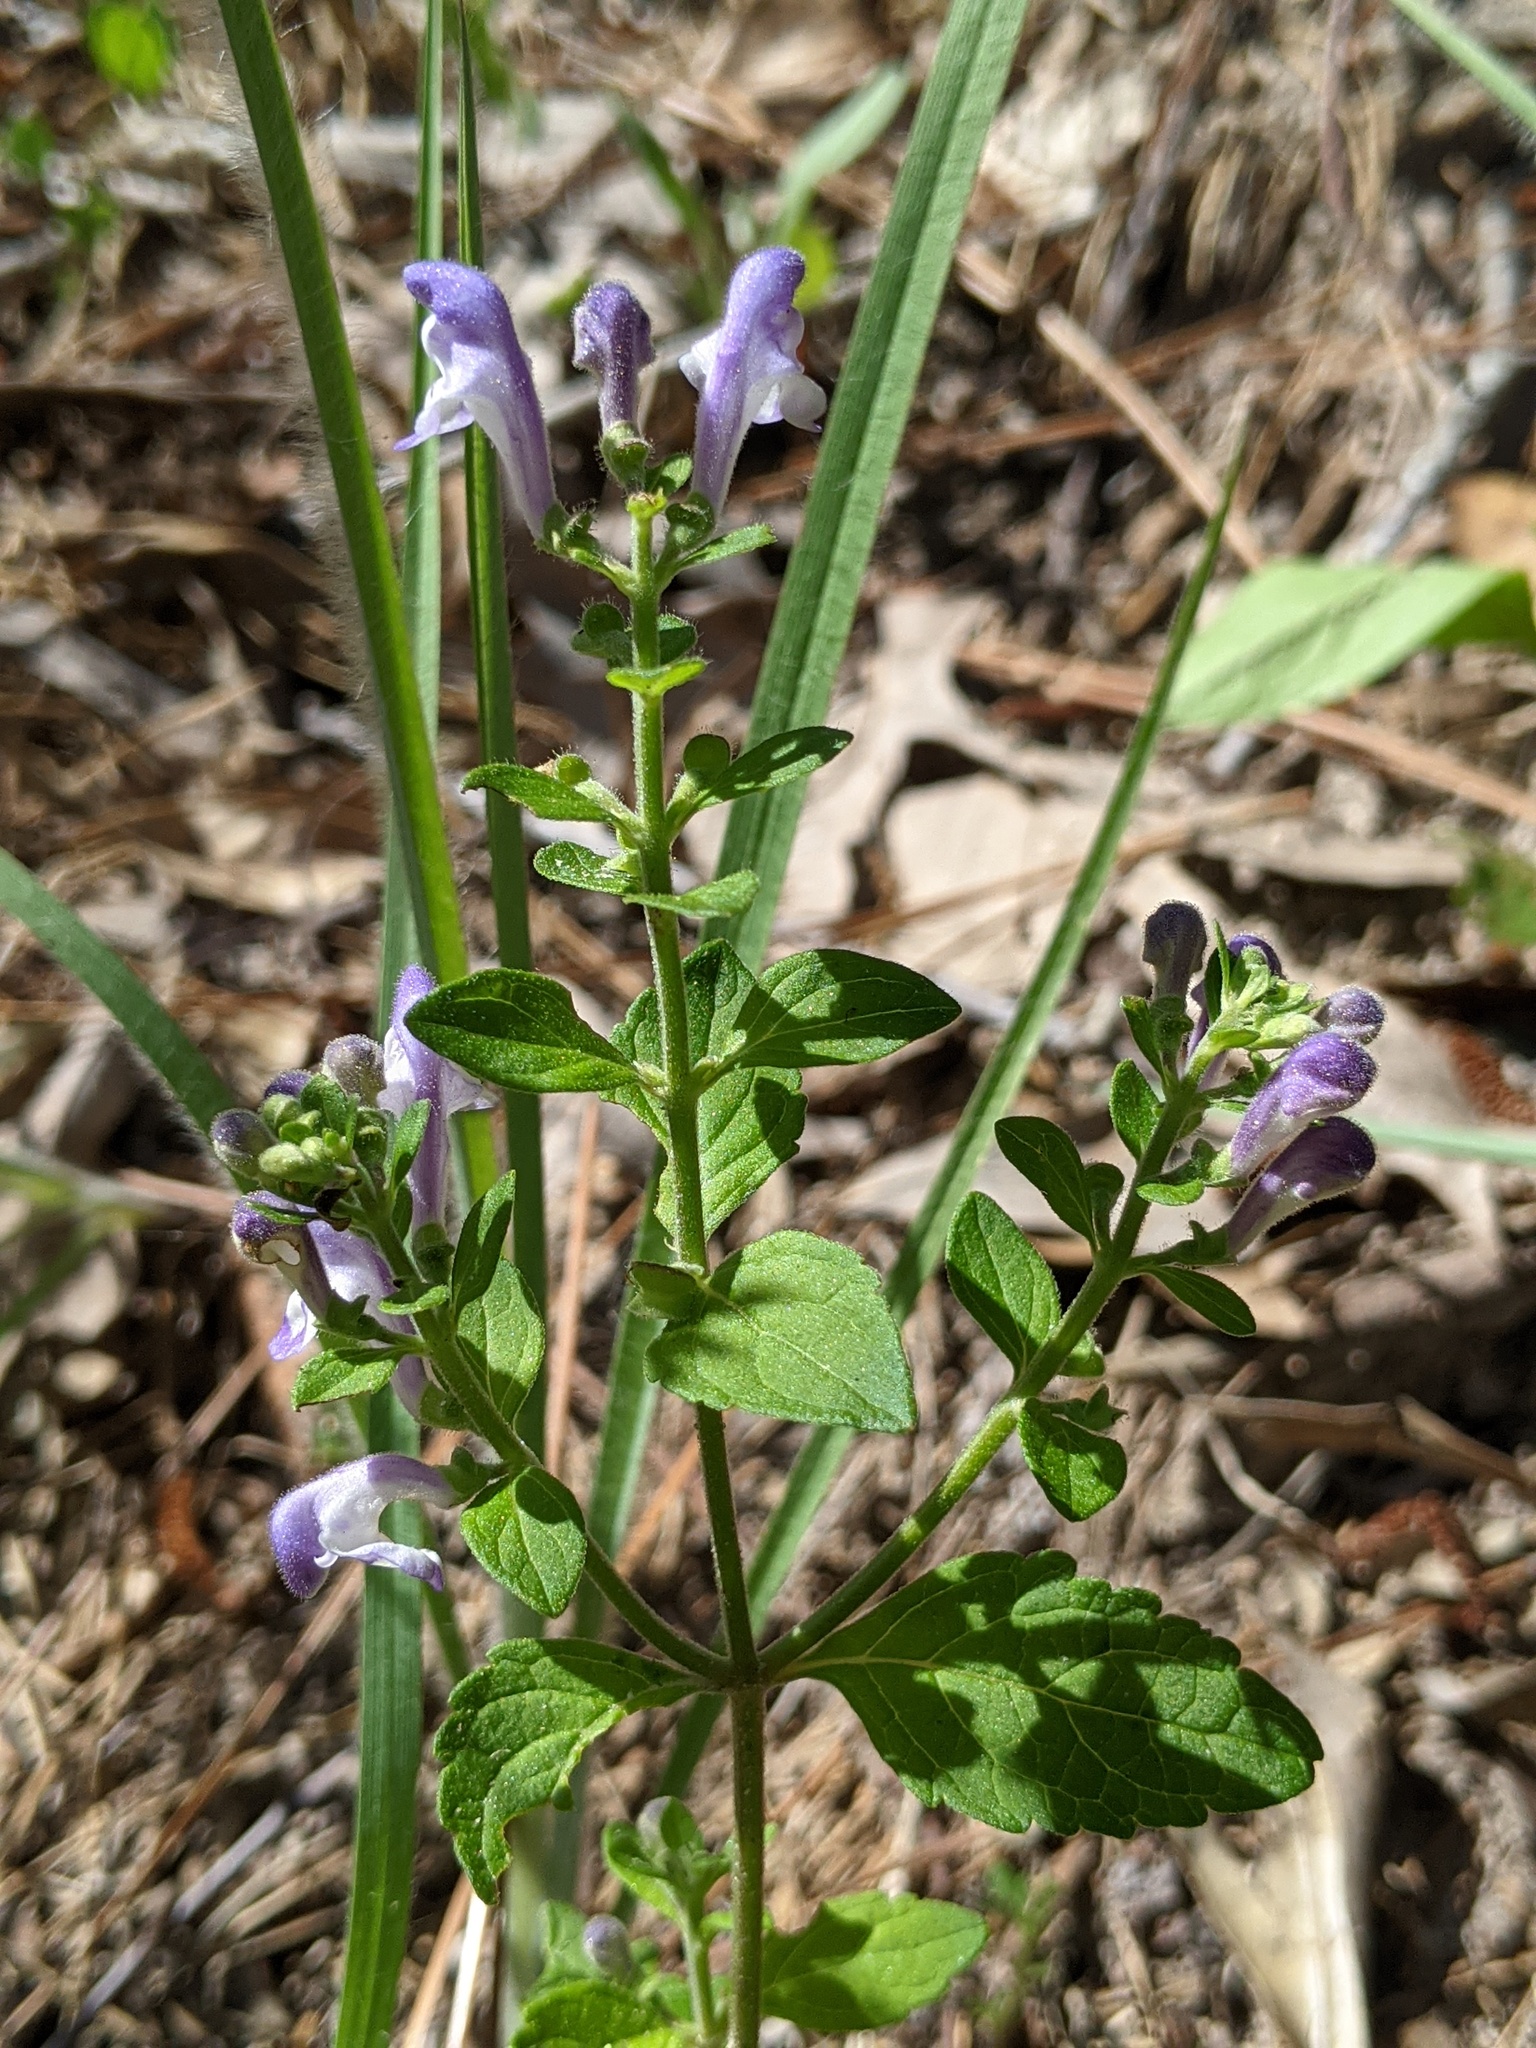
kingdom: Plantae
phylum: Tracheophyta
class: Magnoliopsida
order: Lamiales
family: Lamiaceae
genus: Scutellaria
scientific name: Scutellaria elliptica
